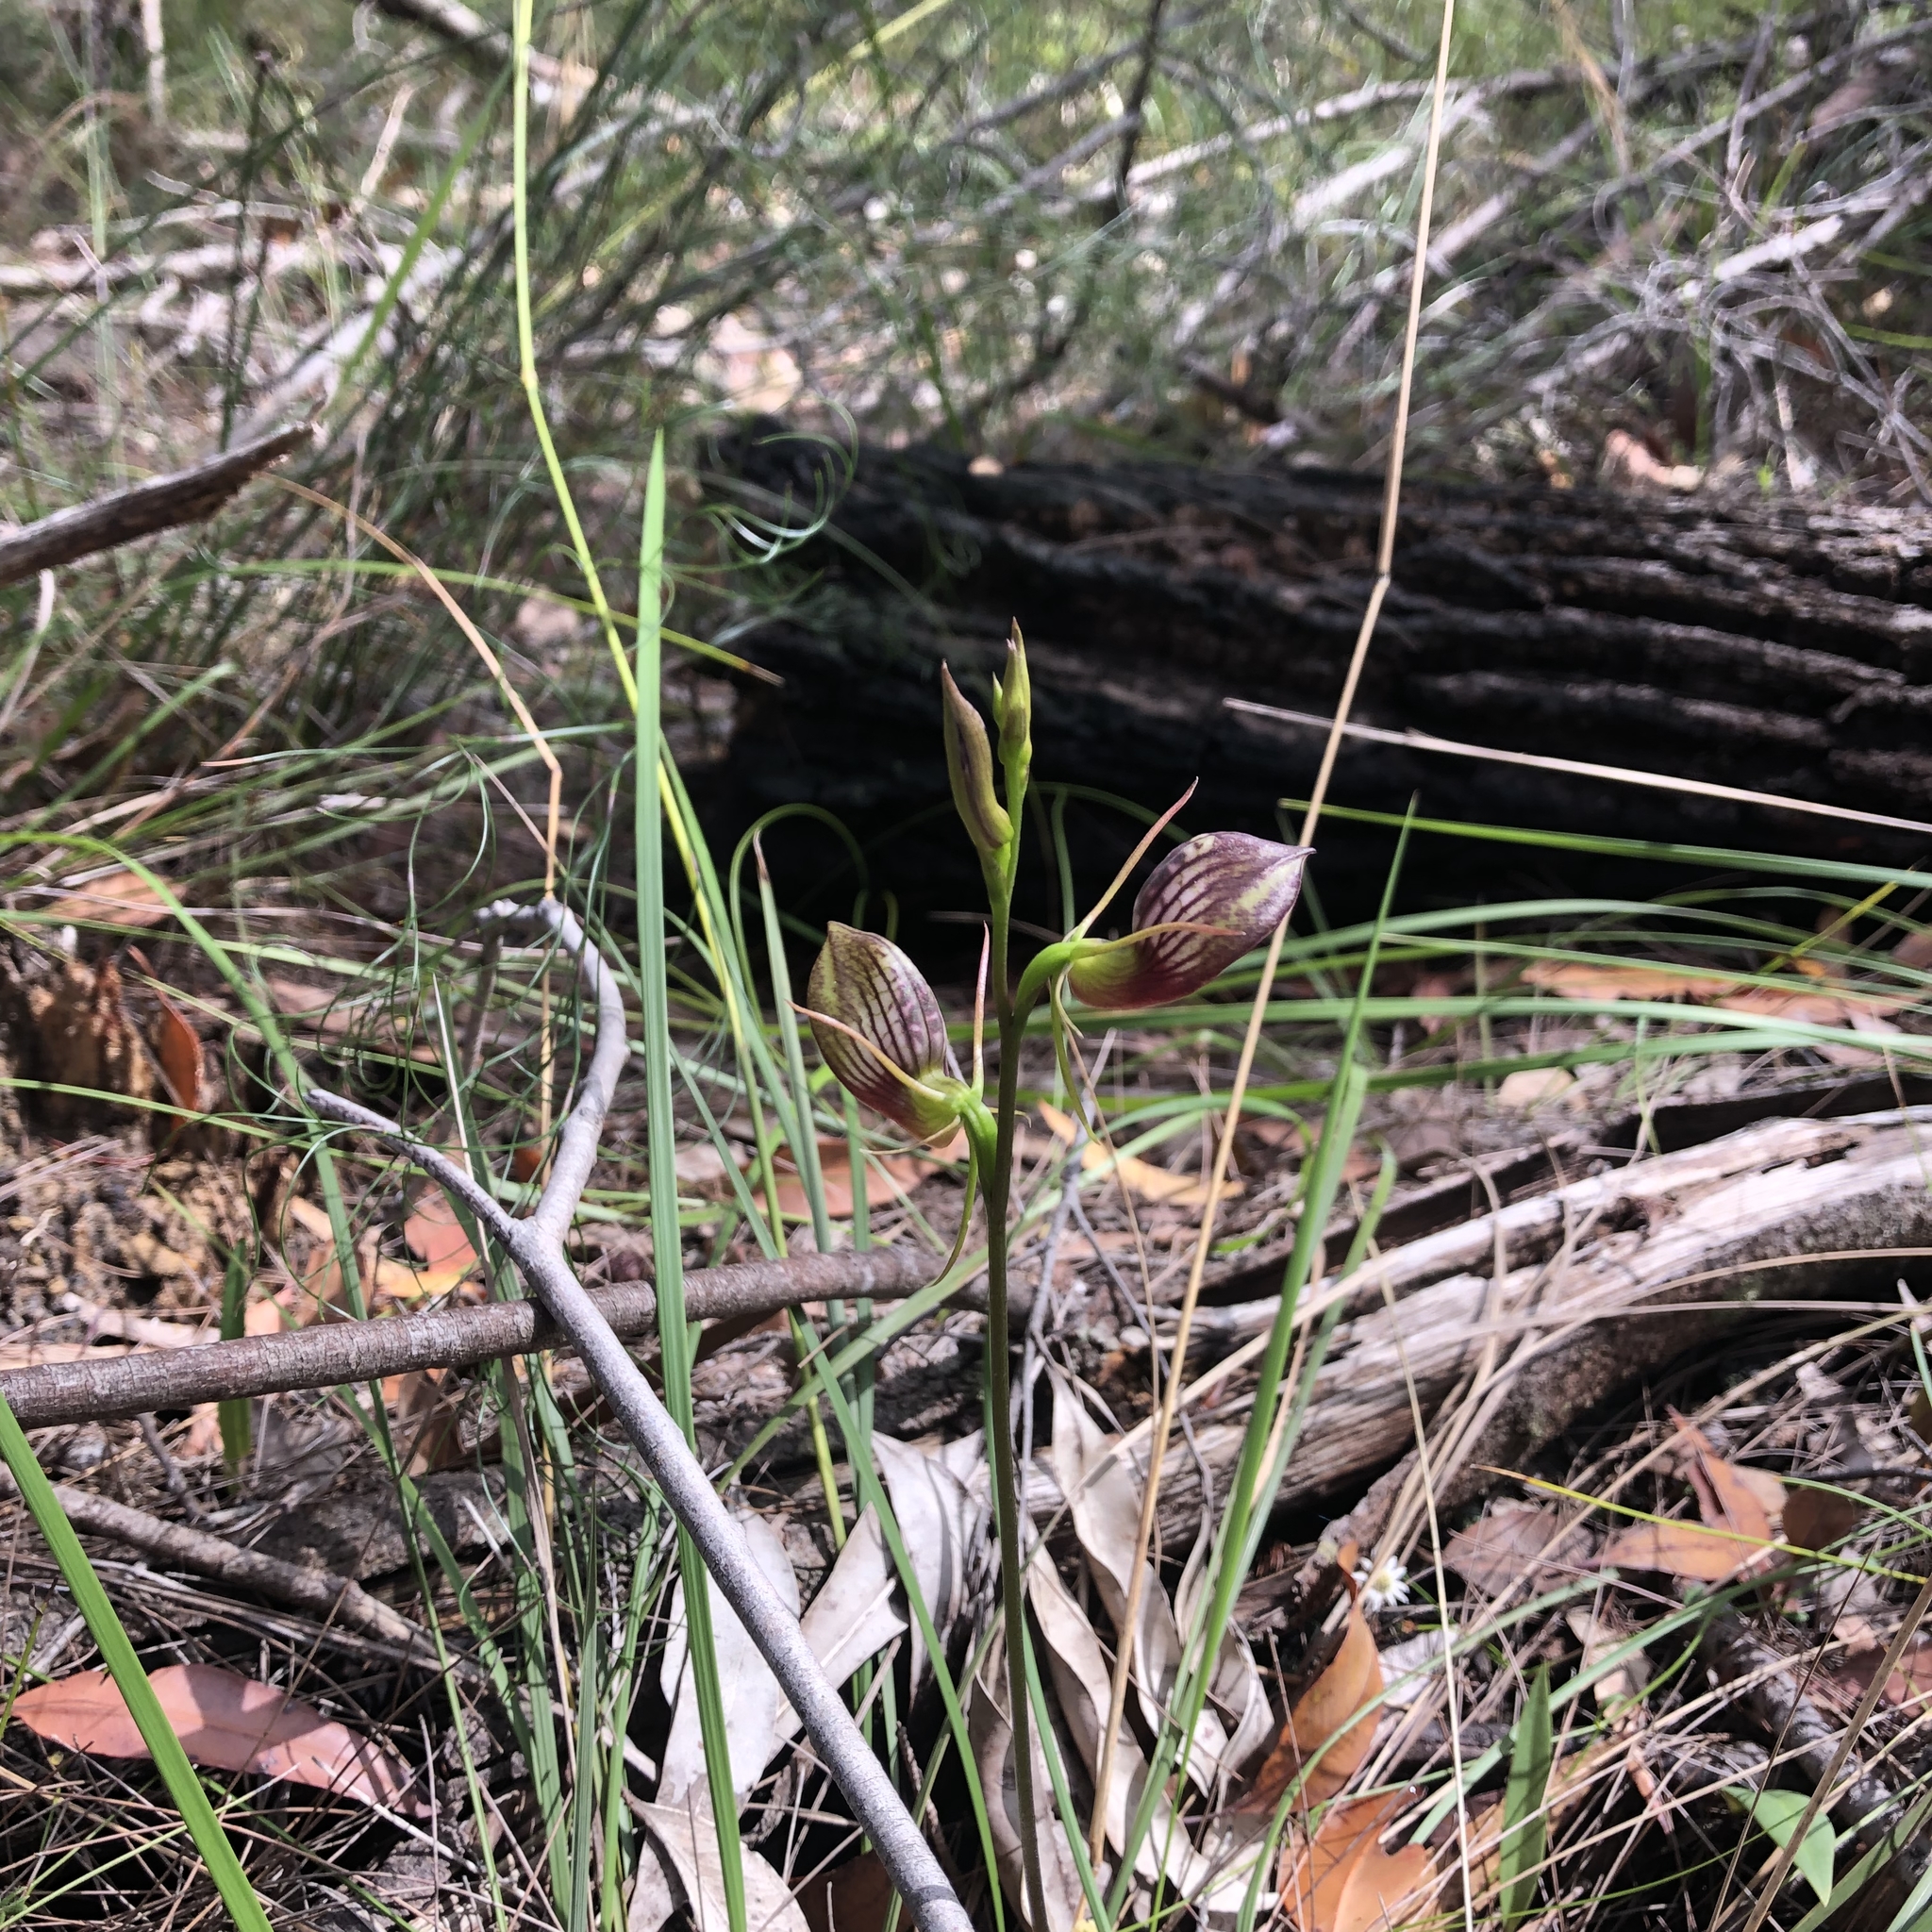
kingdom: Plantae
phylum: Tracheophyta
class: Liliopsida
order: Asparagales
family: Orchidaceae
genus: Cryptostylis
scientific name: Cryptostylis erecta
